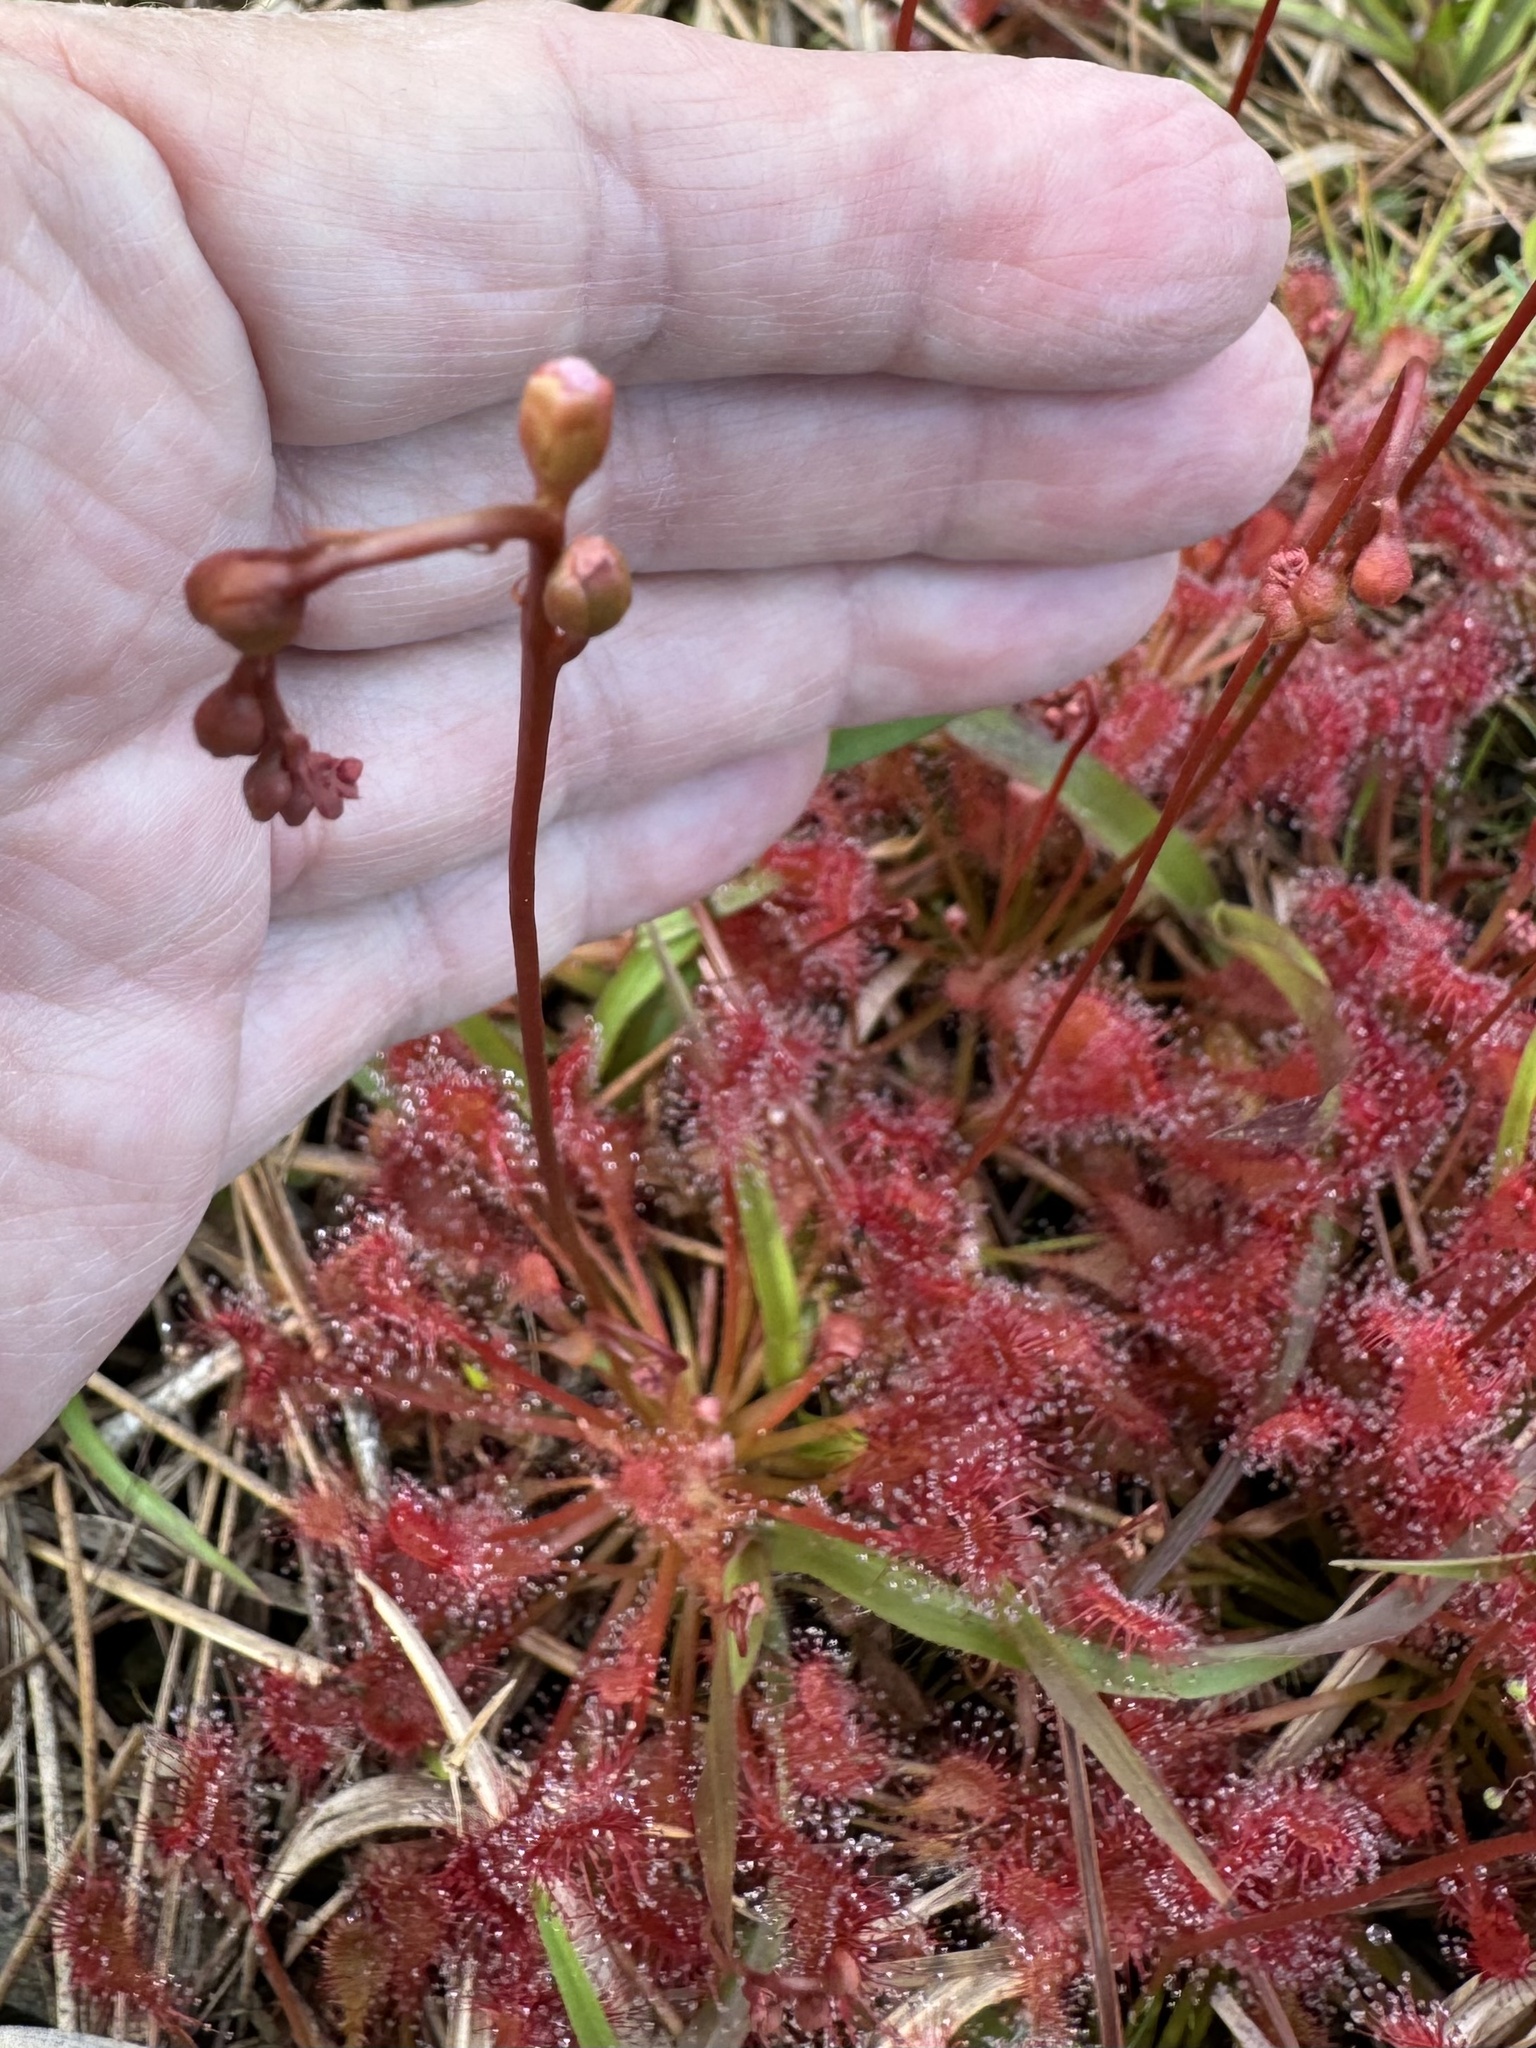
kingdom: Plantae
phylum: Tracheophyta
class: Magnoliopsida
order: Caryophyllales
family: Droseraceae
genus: Drosera
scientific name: Drosera capillaris
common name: Pink sundew
